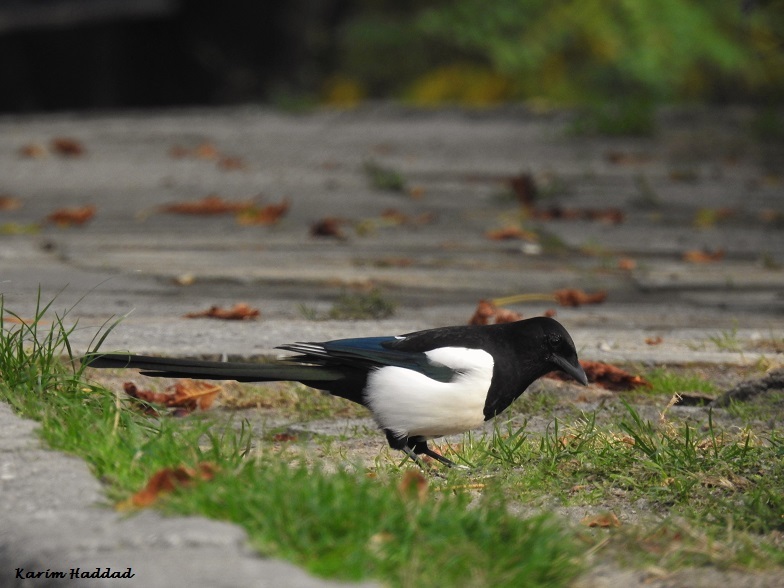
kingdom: Animalia
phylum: Chordata
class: Aves
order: Passeriformes
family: Corvidae
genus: Pica
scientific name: Pica pica
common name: Eurasian magpie
